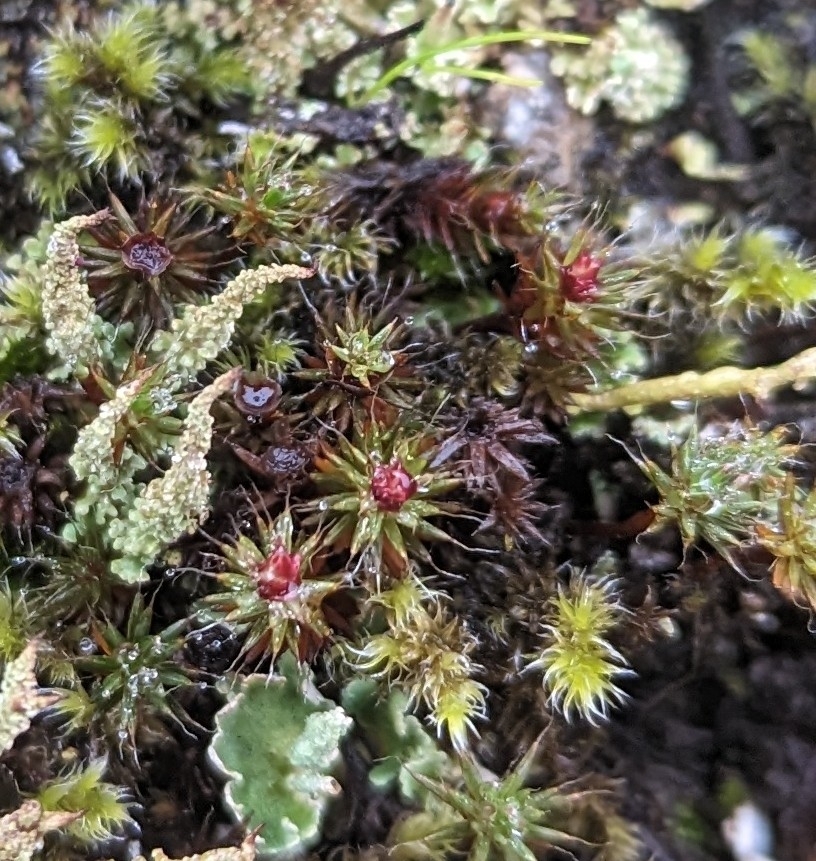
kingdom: Plantae
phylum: Bryophyta
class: Polytrichopsida
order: Polytrichales
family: Polytrichaceae
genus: Polytrichum
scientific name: Polytrichum piliferum
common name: Bristly haircap
